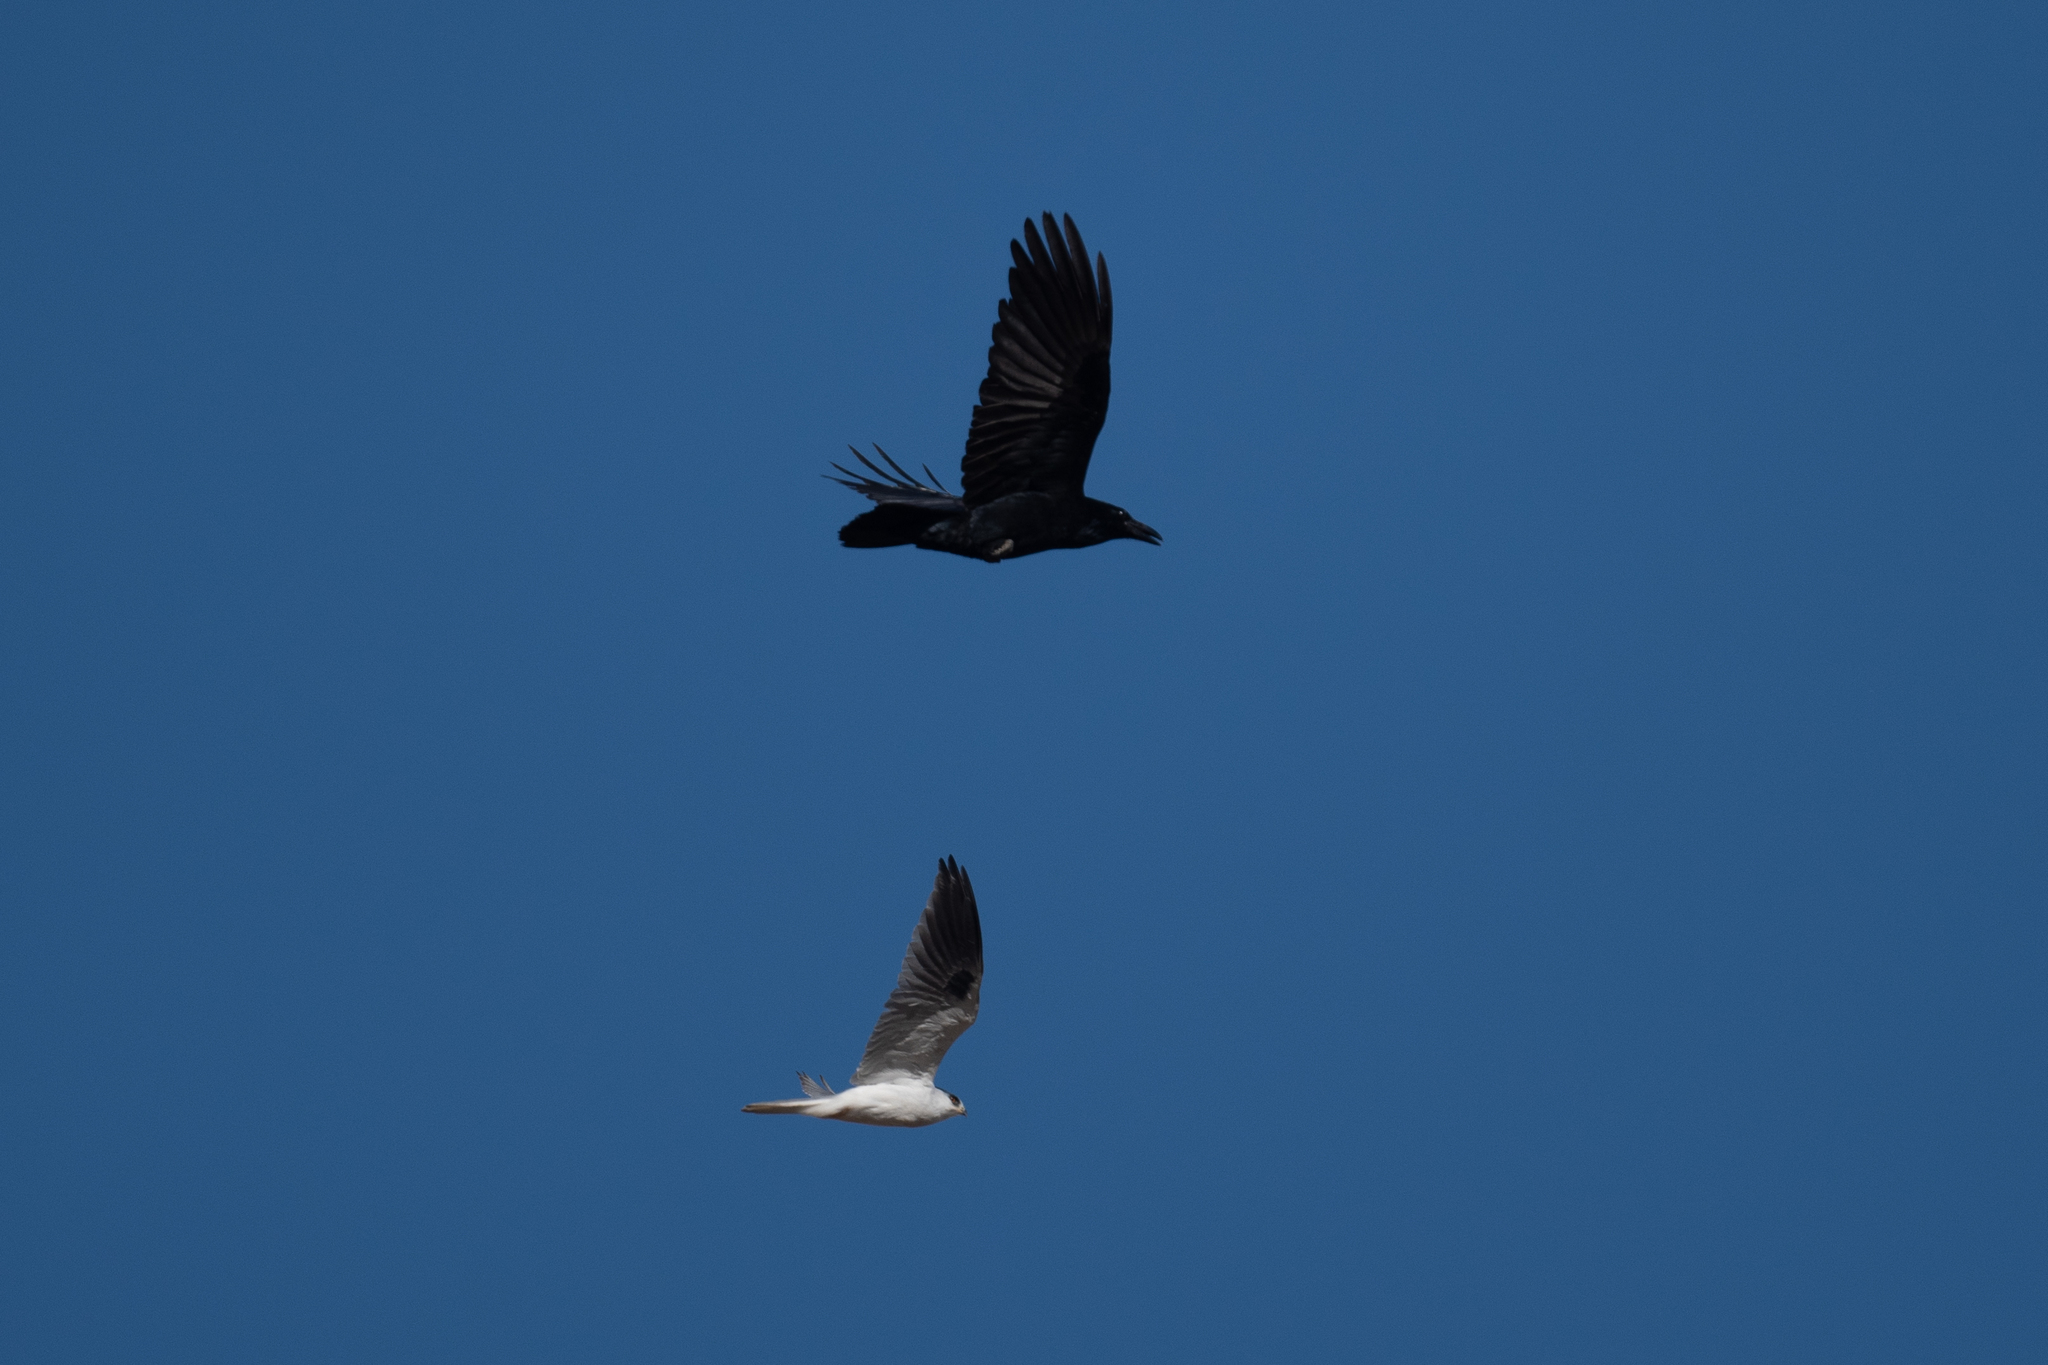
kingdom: Animalia
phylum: Chordata
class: Aves
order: Accipitriformes
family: Accipitridae
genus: Elanus
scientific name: Elanus leucurus
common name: White-tailed kite
